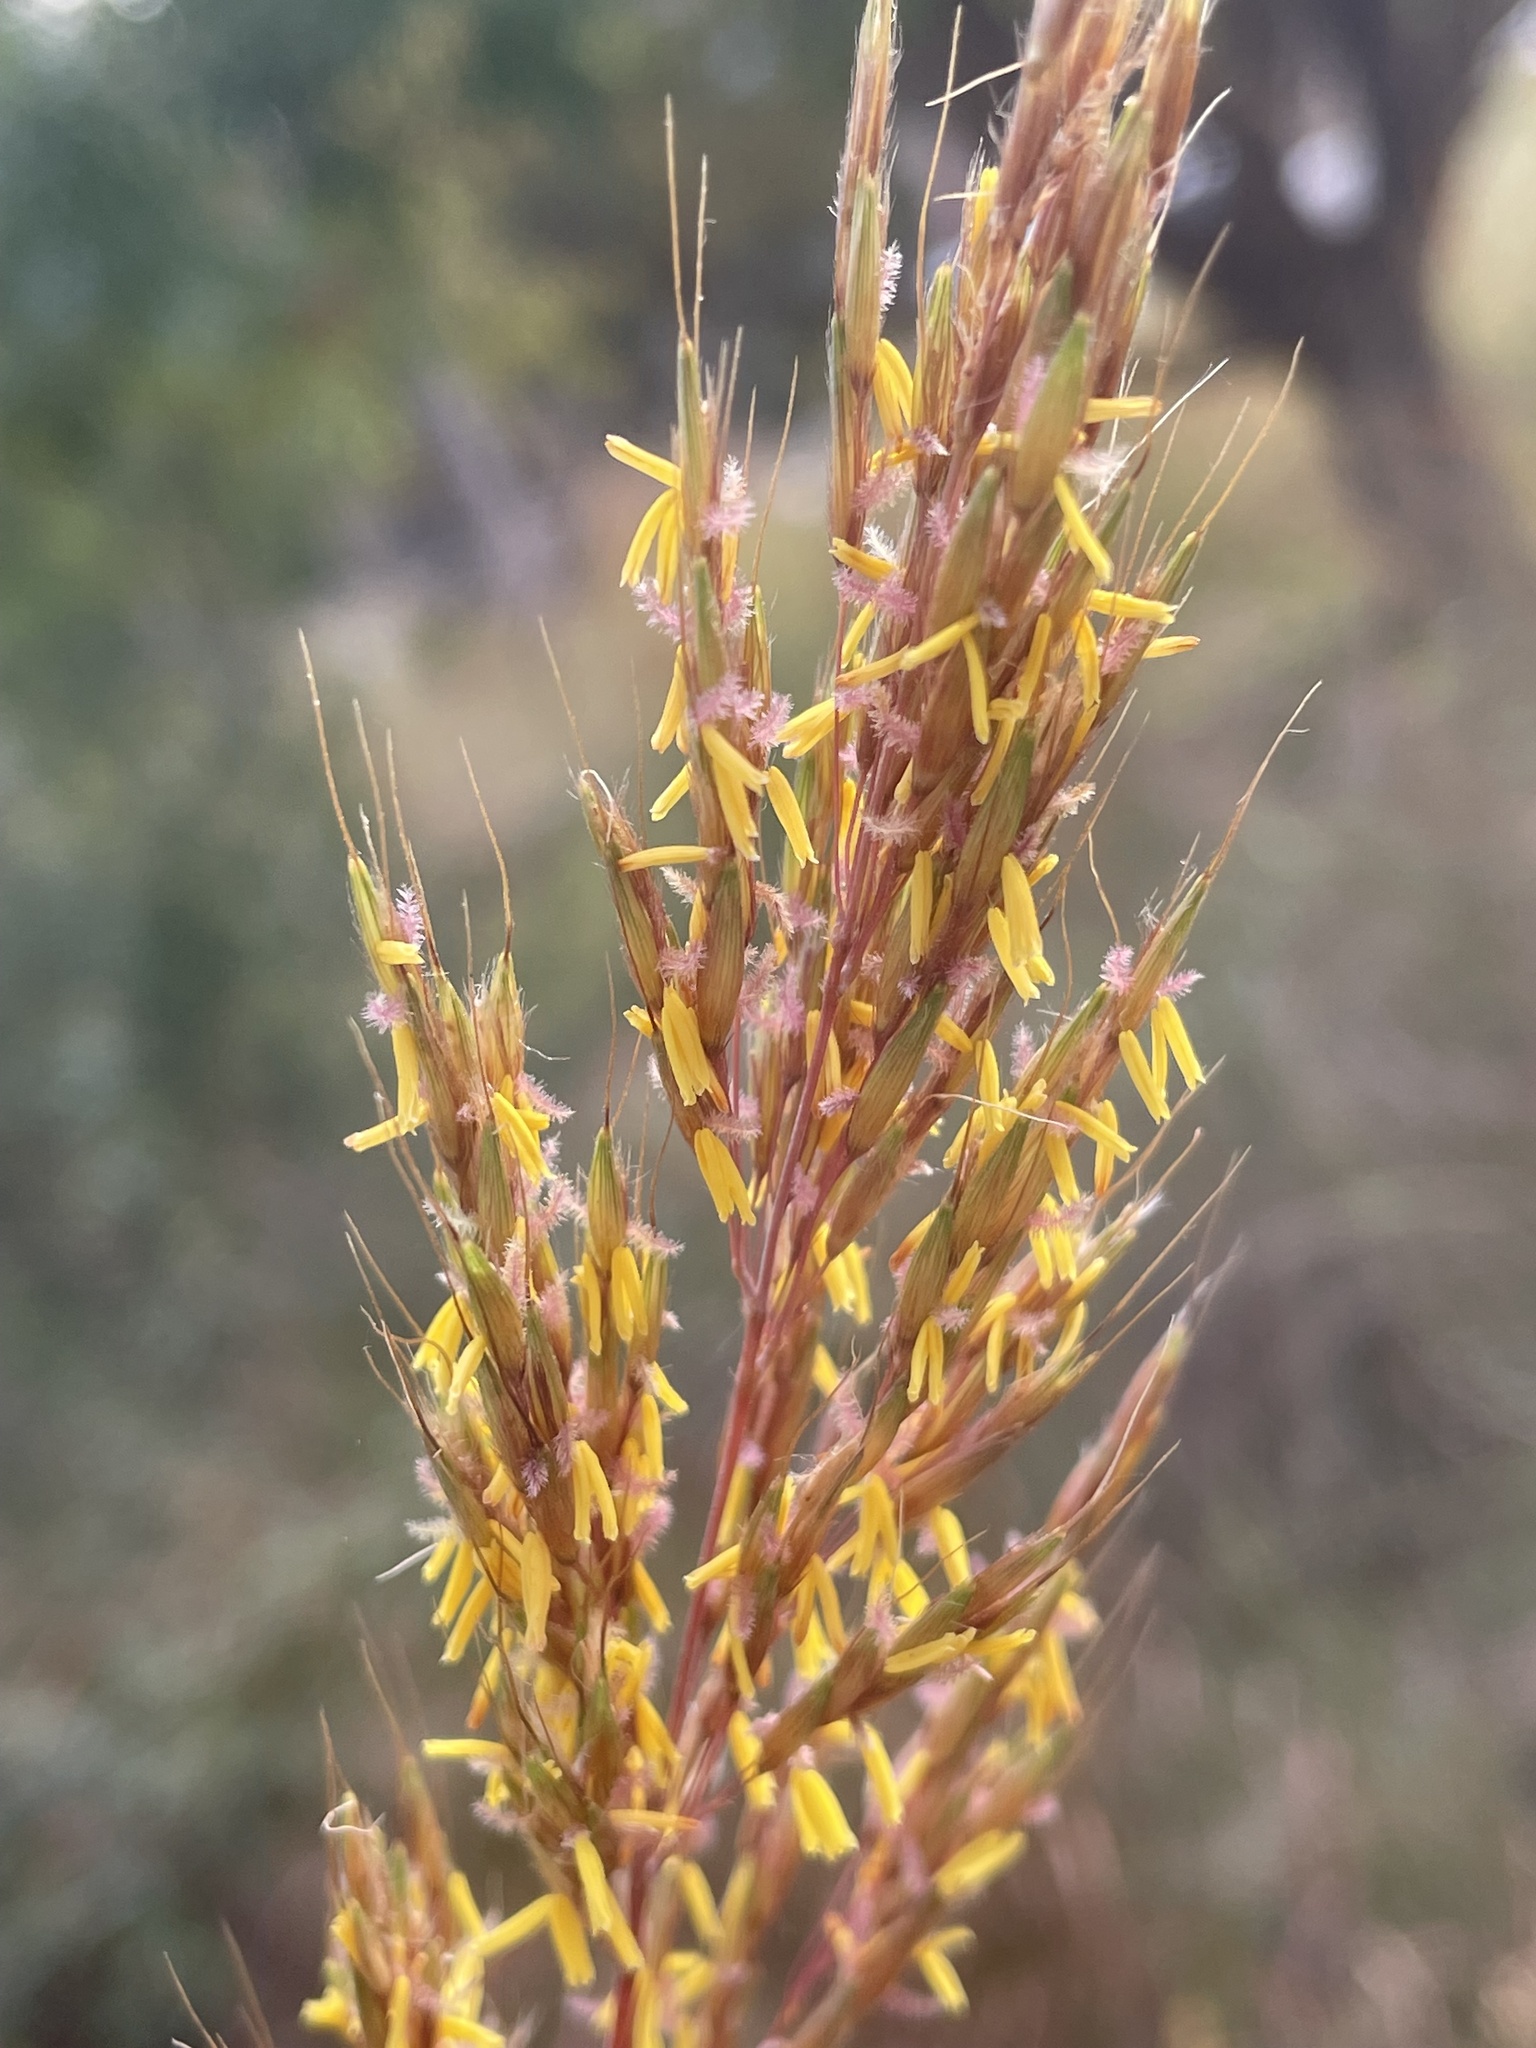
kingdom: Plantae
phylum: Tracheophyta
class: Liliopsida
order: Poales
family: Poaceae
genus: Sorghastrum
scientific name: Sorghastrum nutans
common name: Indian grass
